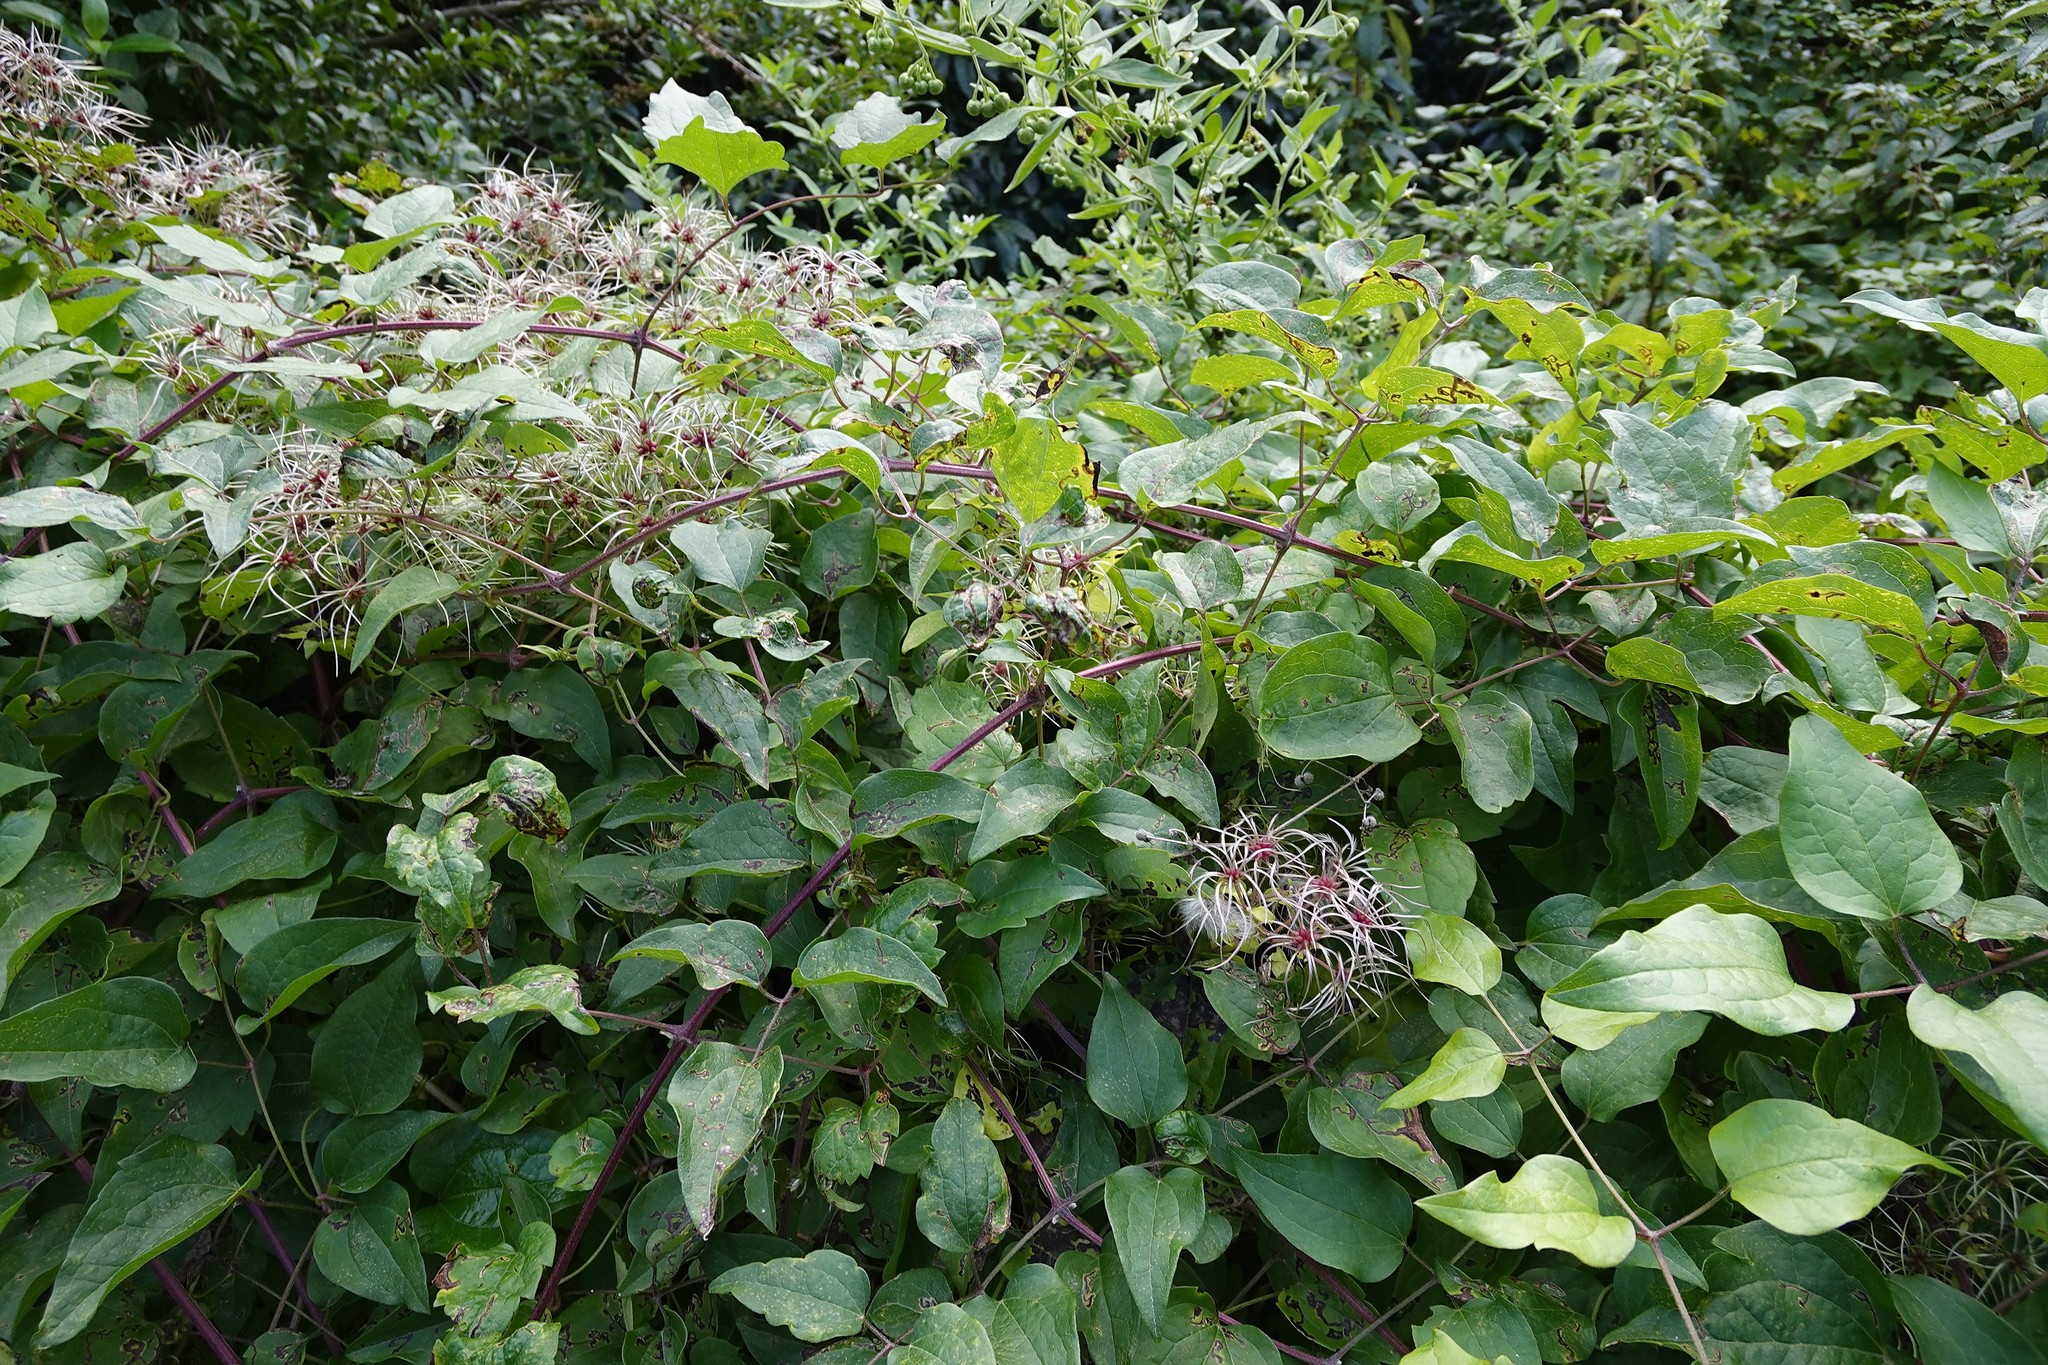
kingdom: Plantae
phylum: Tracheophyta
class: Magnoliopsida
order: Ranunculales
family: Ranunculaceae
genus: Clematis
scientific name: Clematis vitalba
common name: Evergreen clematis
